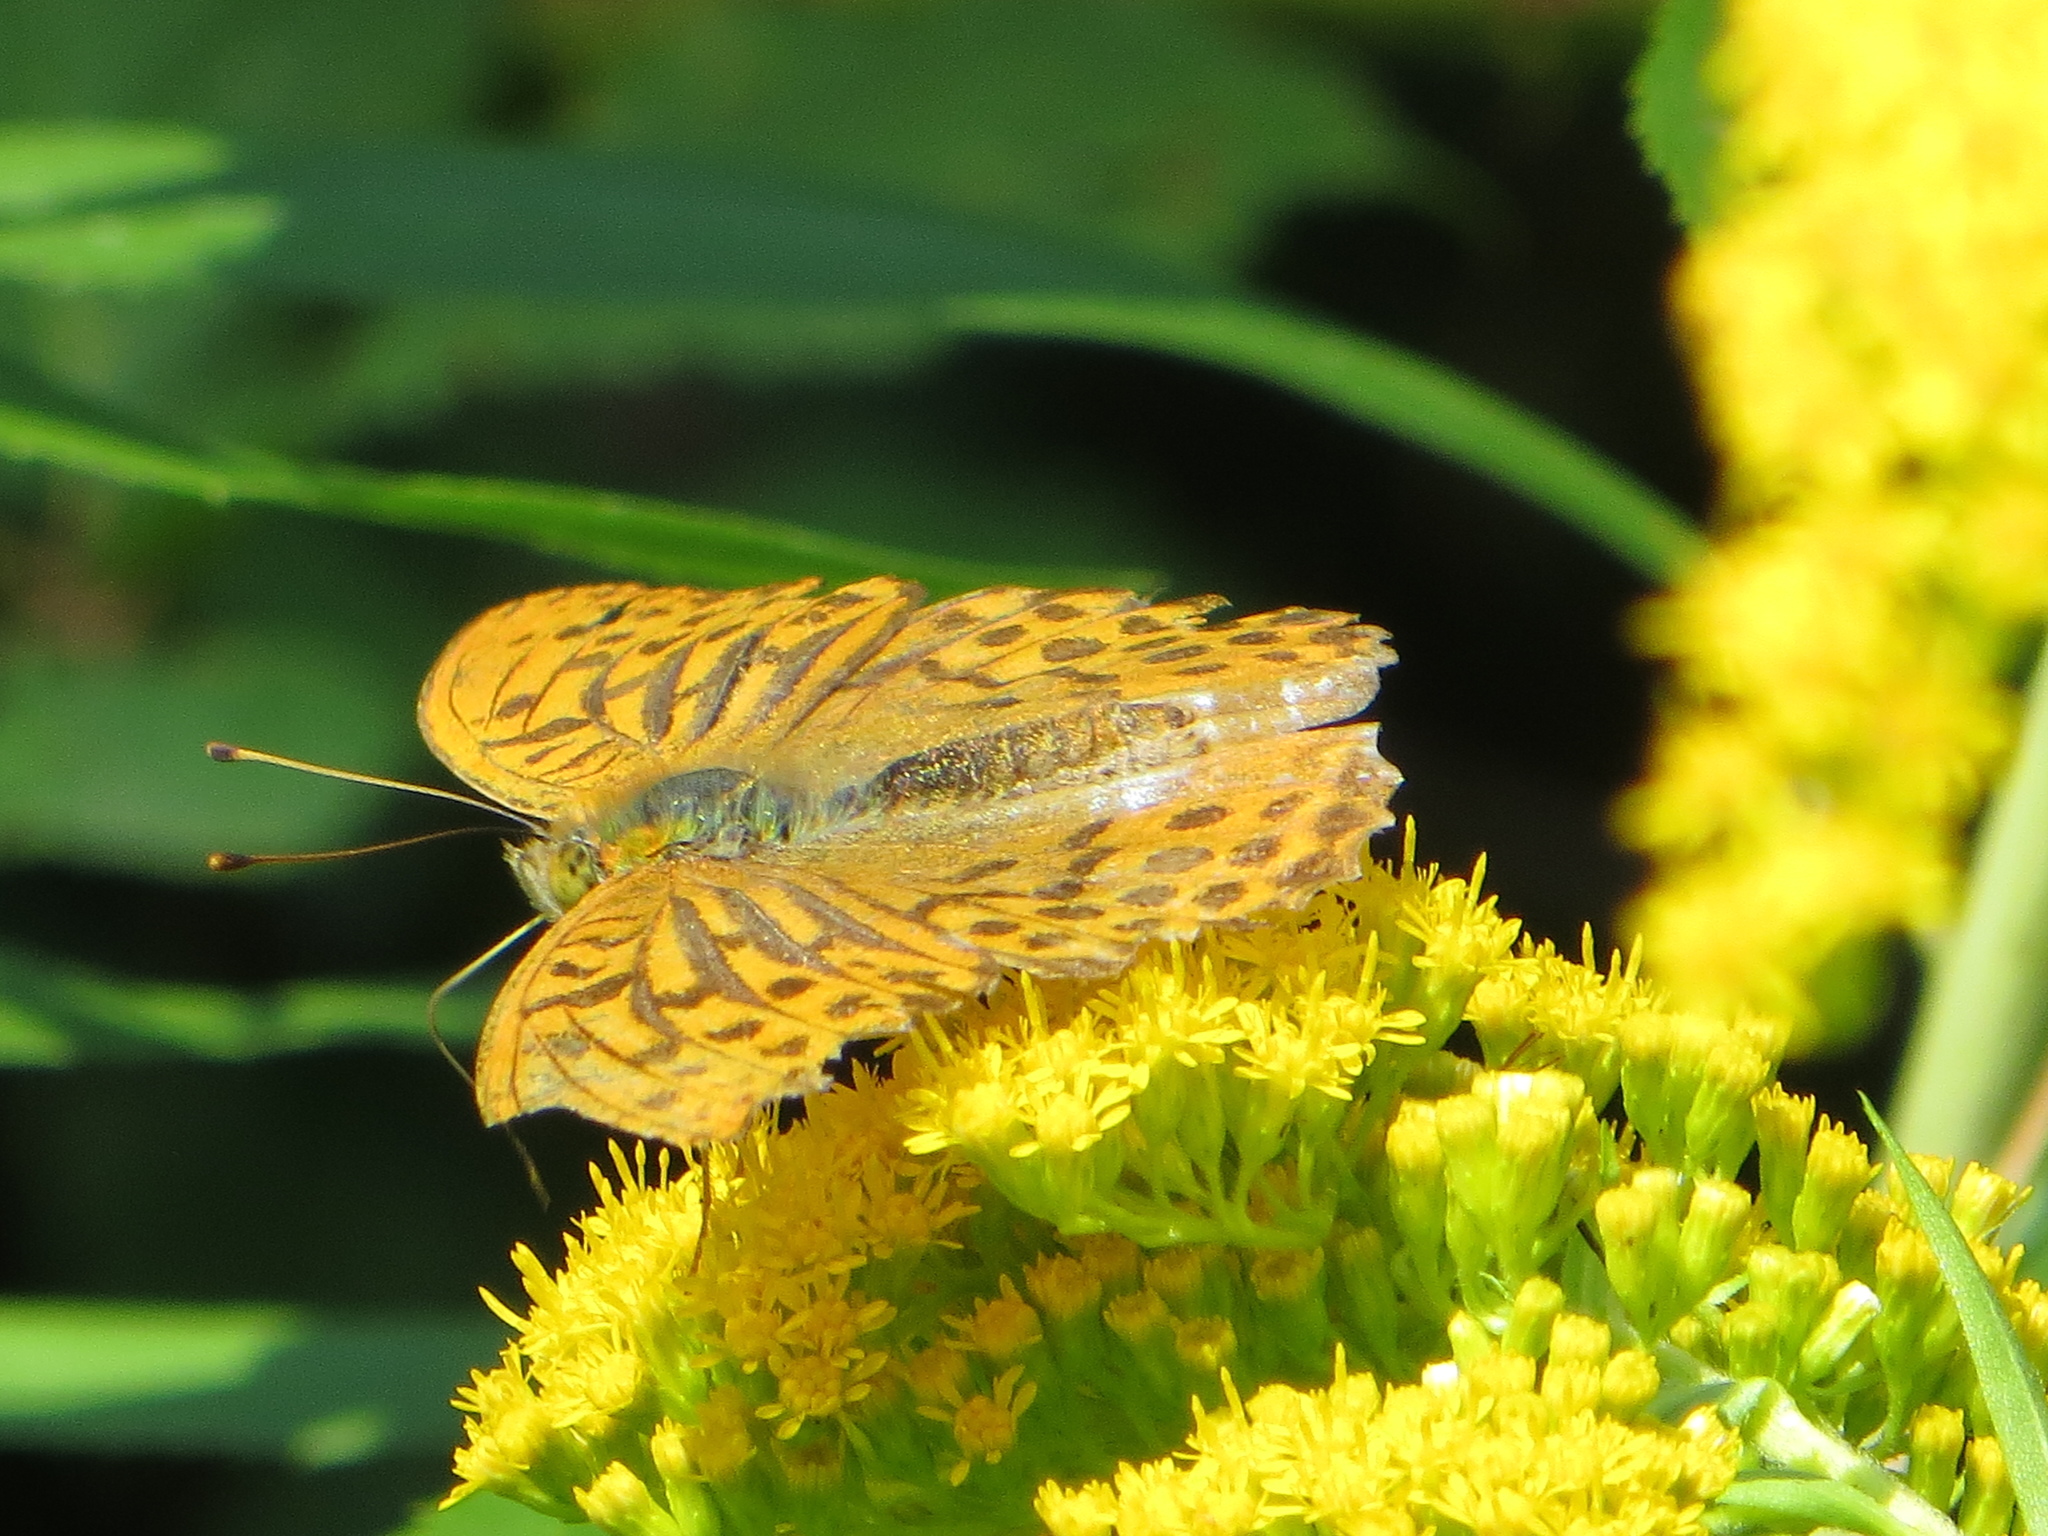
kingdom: Animalia
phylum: Arthropoda
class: Insecta
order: Lepidoptera
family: Nymphalidae
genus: Argynnis
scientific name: Argynnis paphia
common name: Silver-washed fritillary
